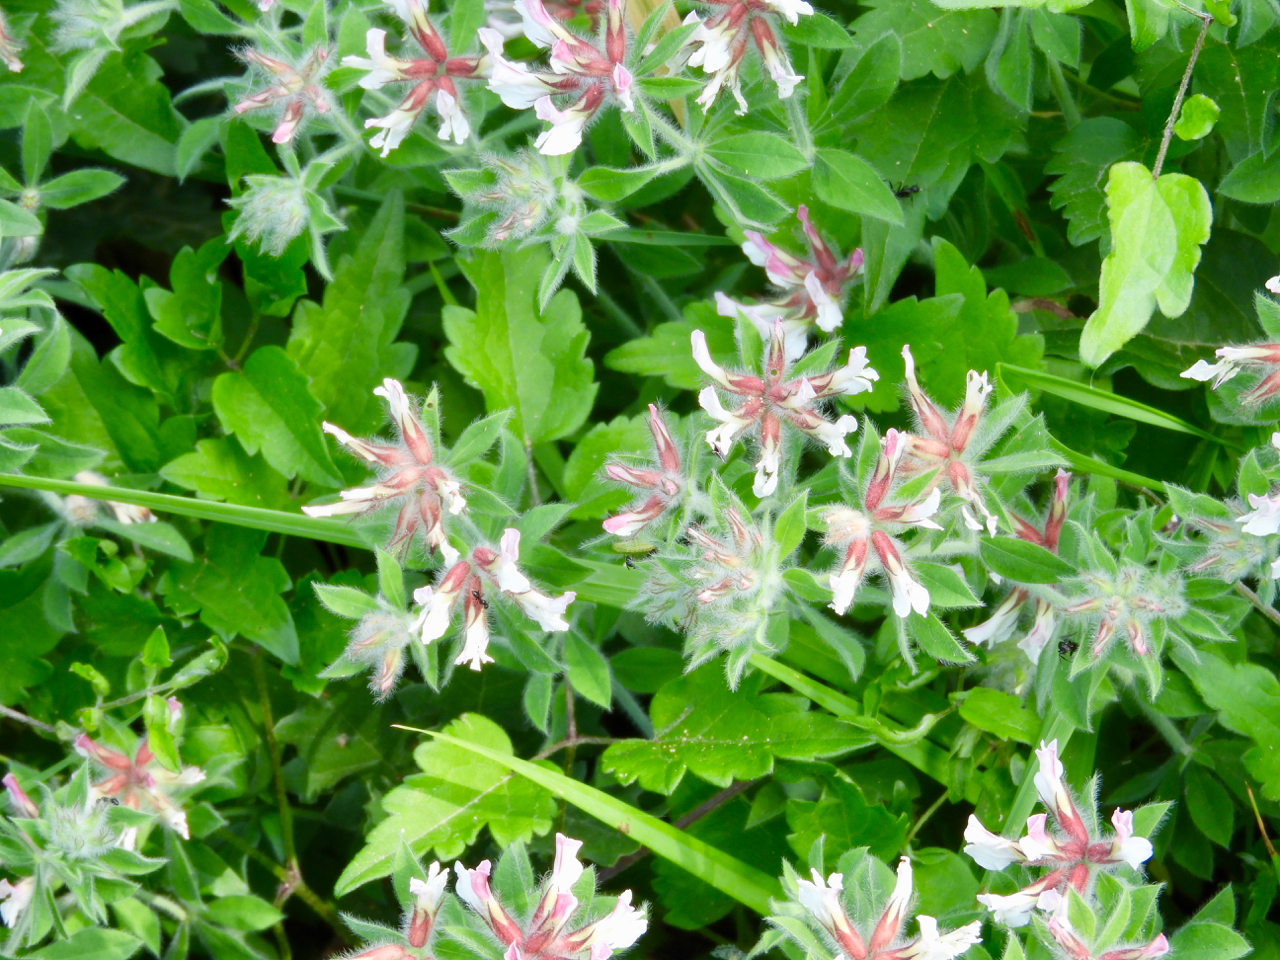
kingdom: Plantae
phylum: Tracheophyta
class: Magnoliopsida
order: Fabales
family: Fabaceae
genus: Lotus
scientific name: Lotus hirsutus
